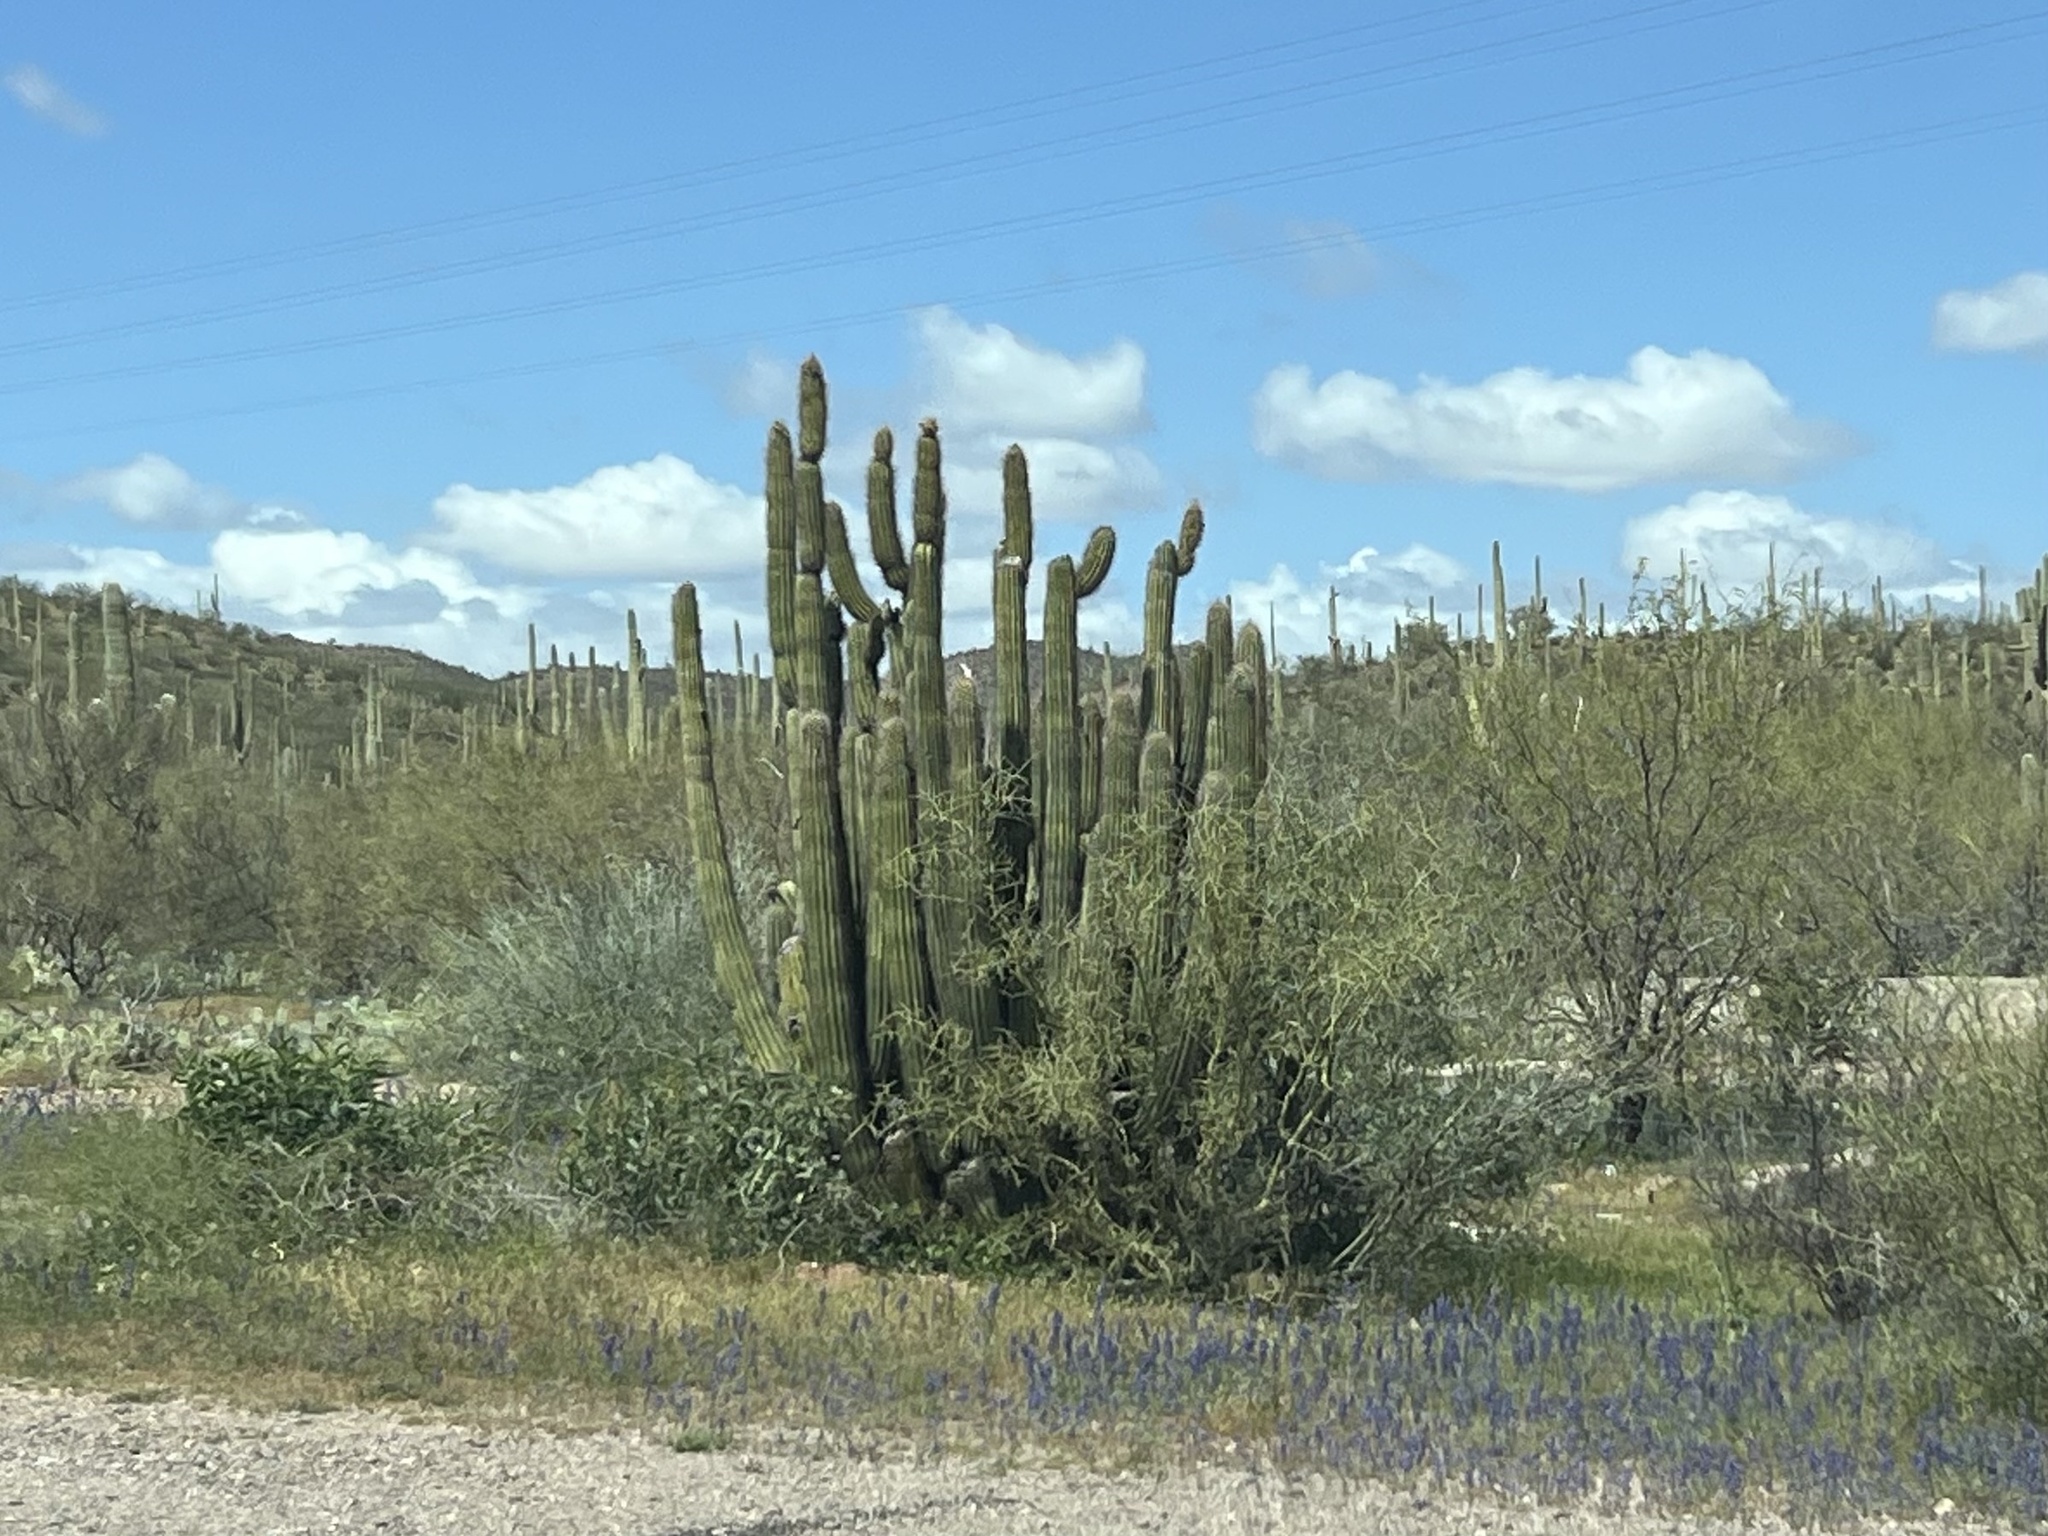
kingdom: Plantae
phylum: Tracheophyta
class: Magnoliopsida
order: Caryophyllales
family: Cactaceae
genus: Stenocereus
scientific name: Stenocereus thurberi
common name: Organ pipe cactus
